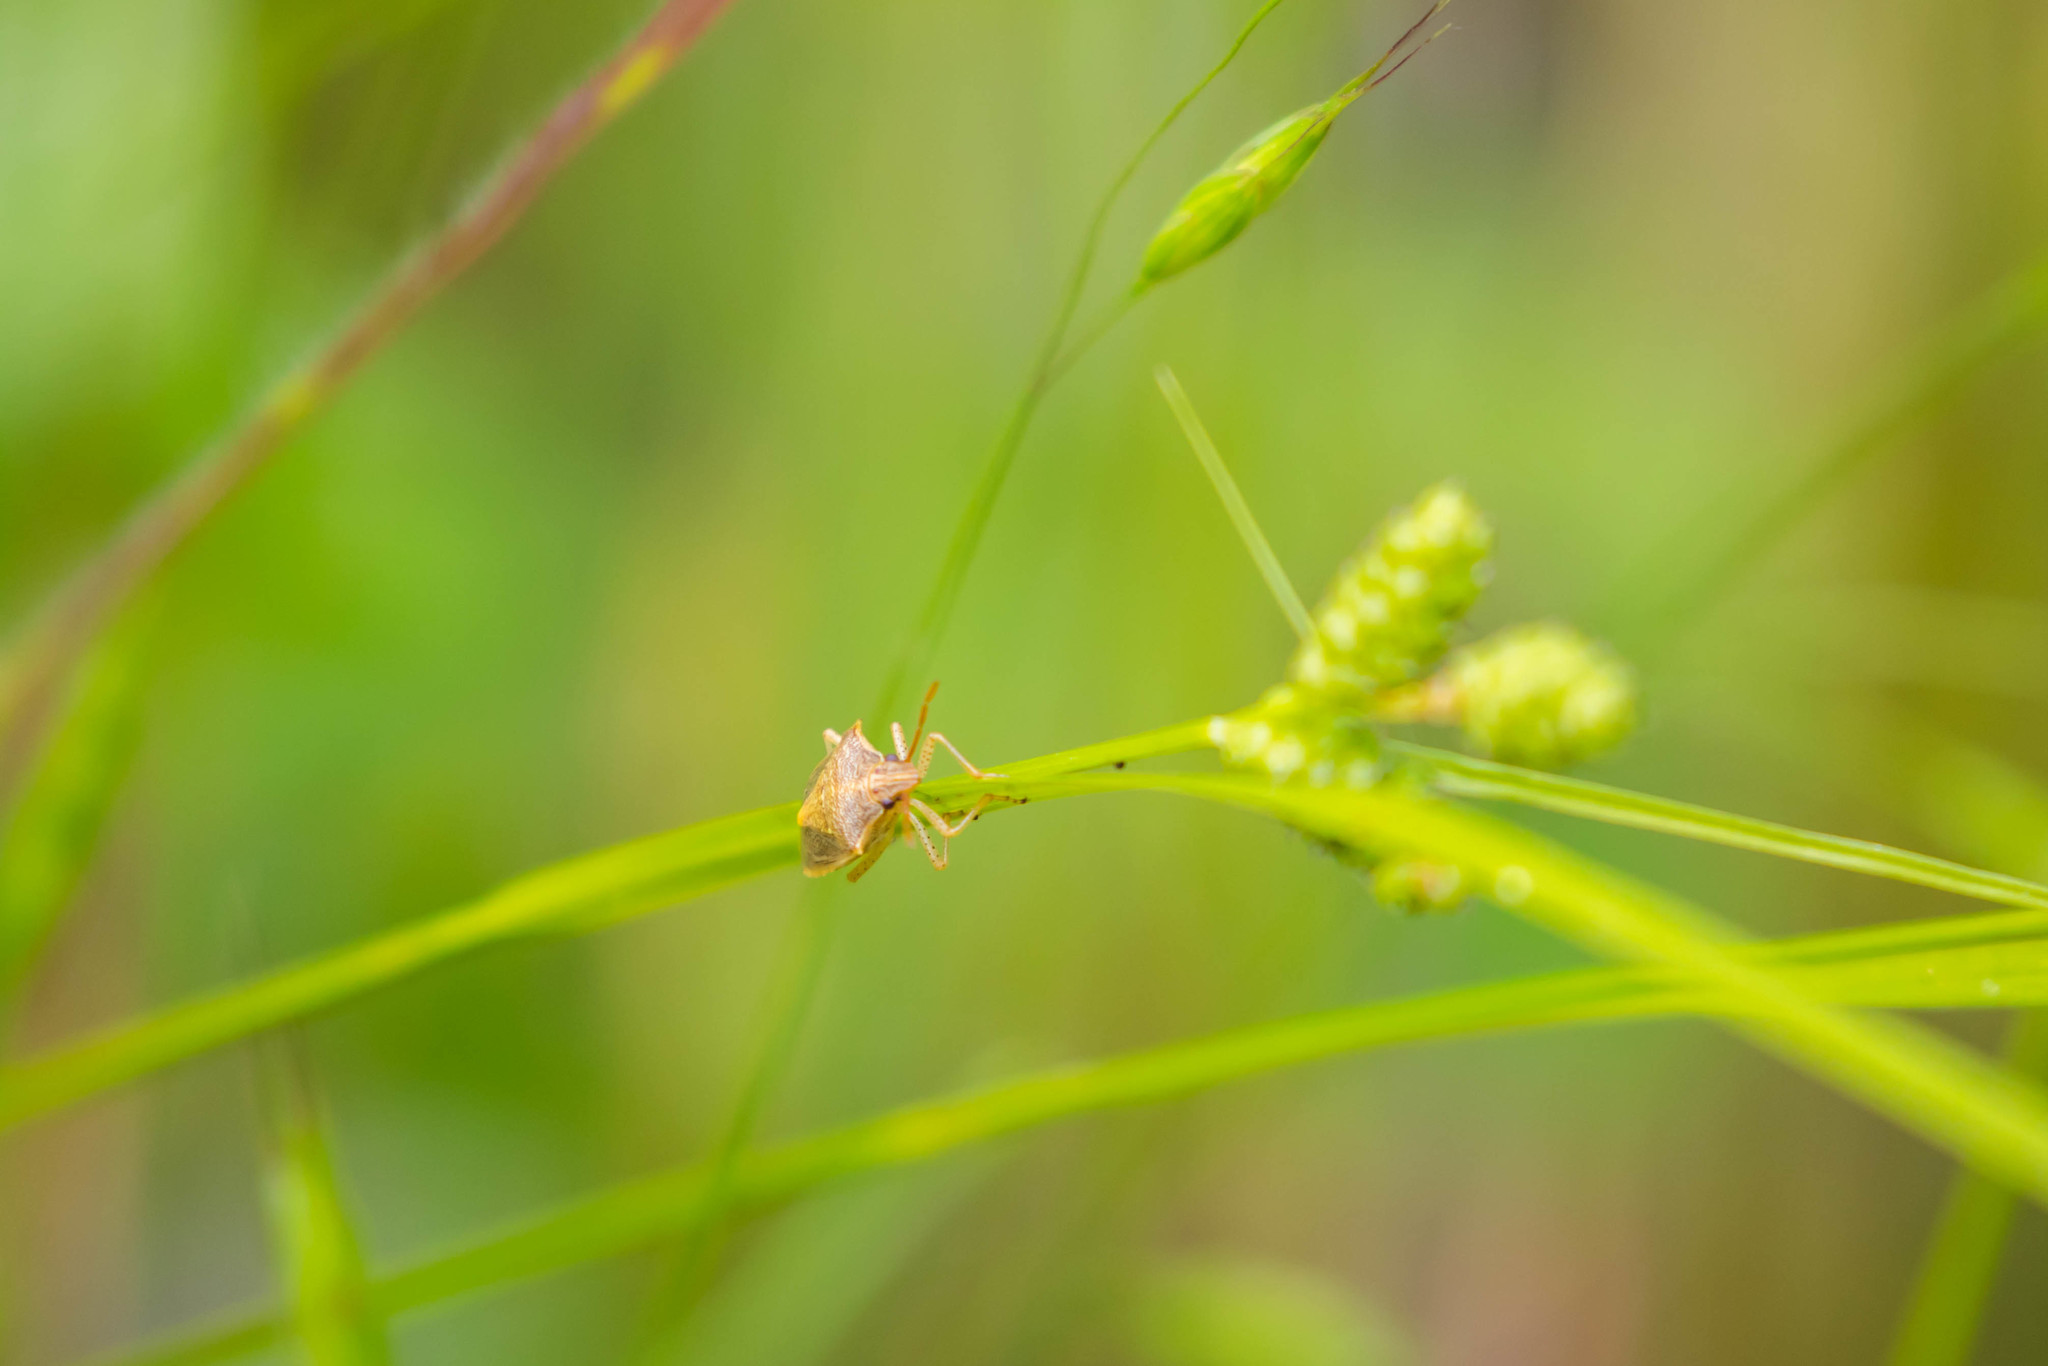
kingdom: Animalia
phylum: Arthropoda
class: Insecta
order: Hemiptera
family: Pentatomidae
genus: Oebalus
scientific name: Oebalus pugnax
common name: Rice stink bug
